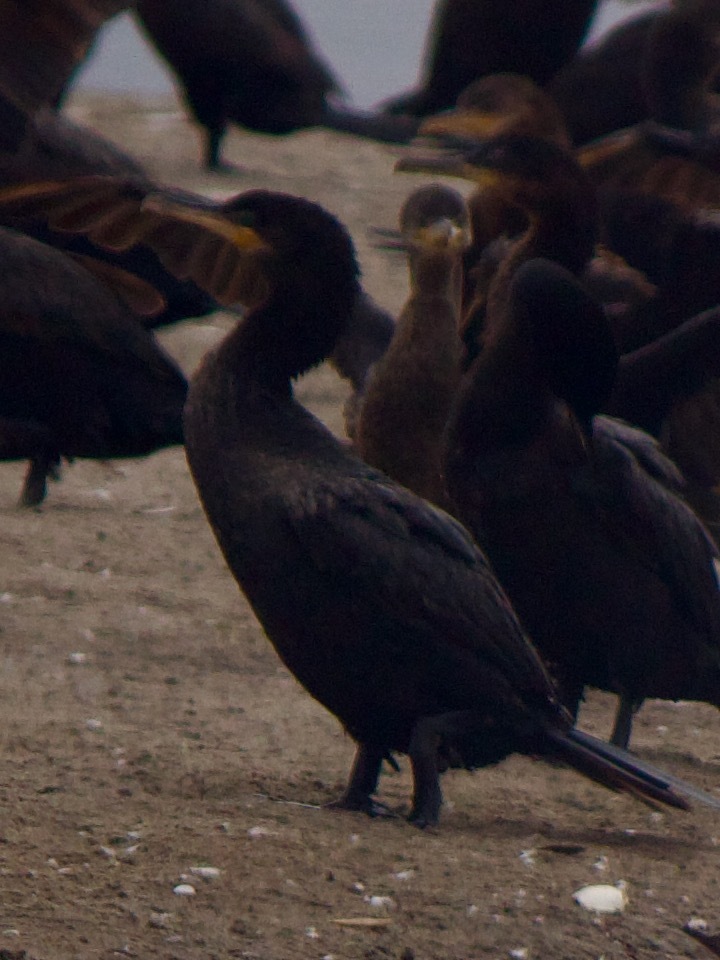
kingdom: Animalia
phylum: Chordata
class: Aves
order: Suliformes
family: Phalacrocoracidae
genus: Phalacrocorax
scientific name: Phalacrocorax brasilianus
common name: Neotropic cormorant
